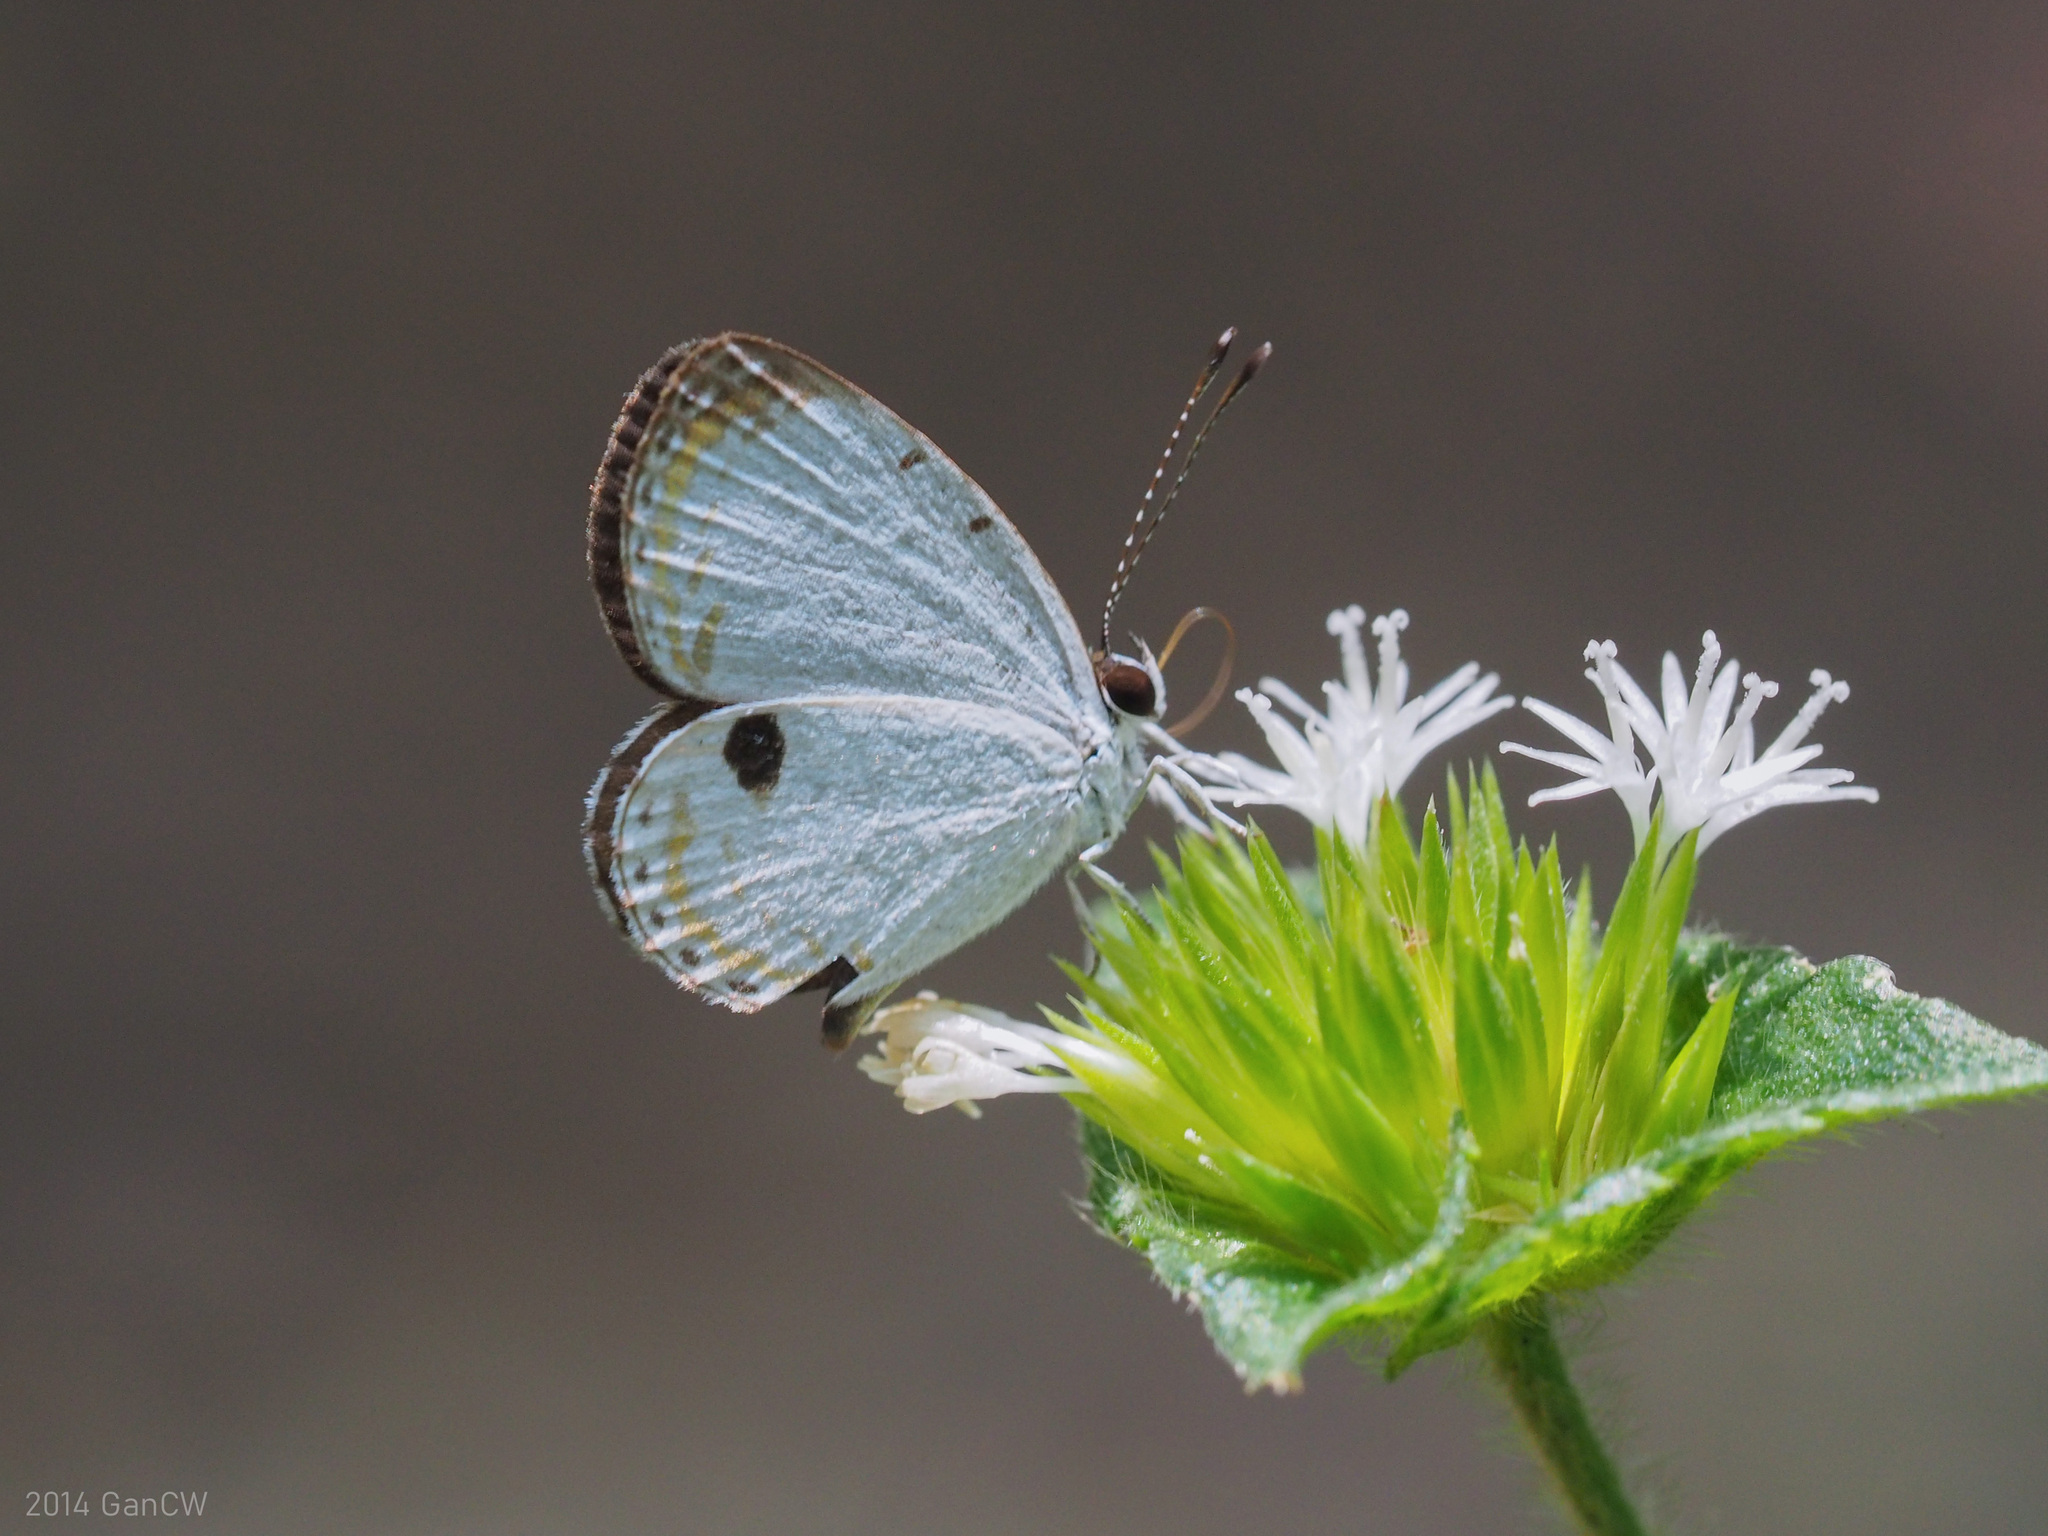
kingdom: Animalia
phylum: Arthropoda
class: Insecta
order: Lepidoptera
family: Lycaenidae
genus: Pithecops
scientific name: Pithecops corvus
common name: Forest quaker
